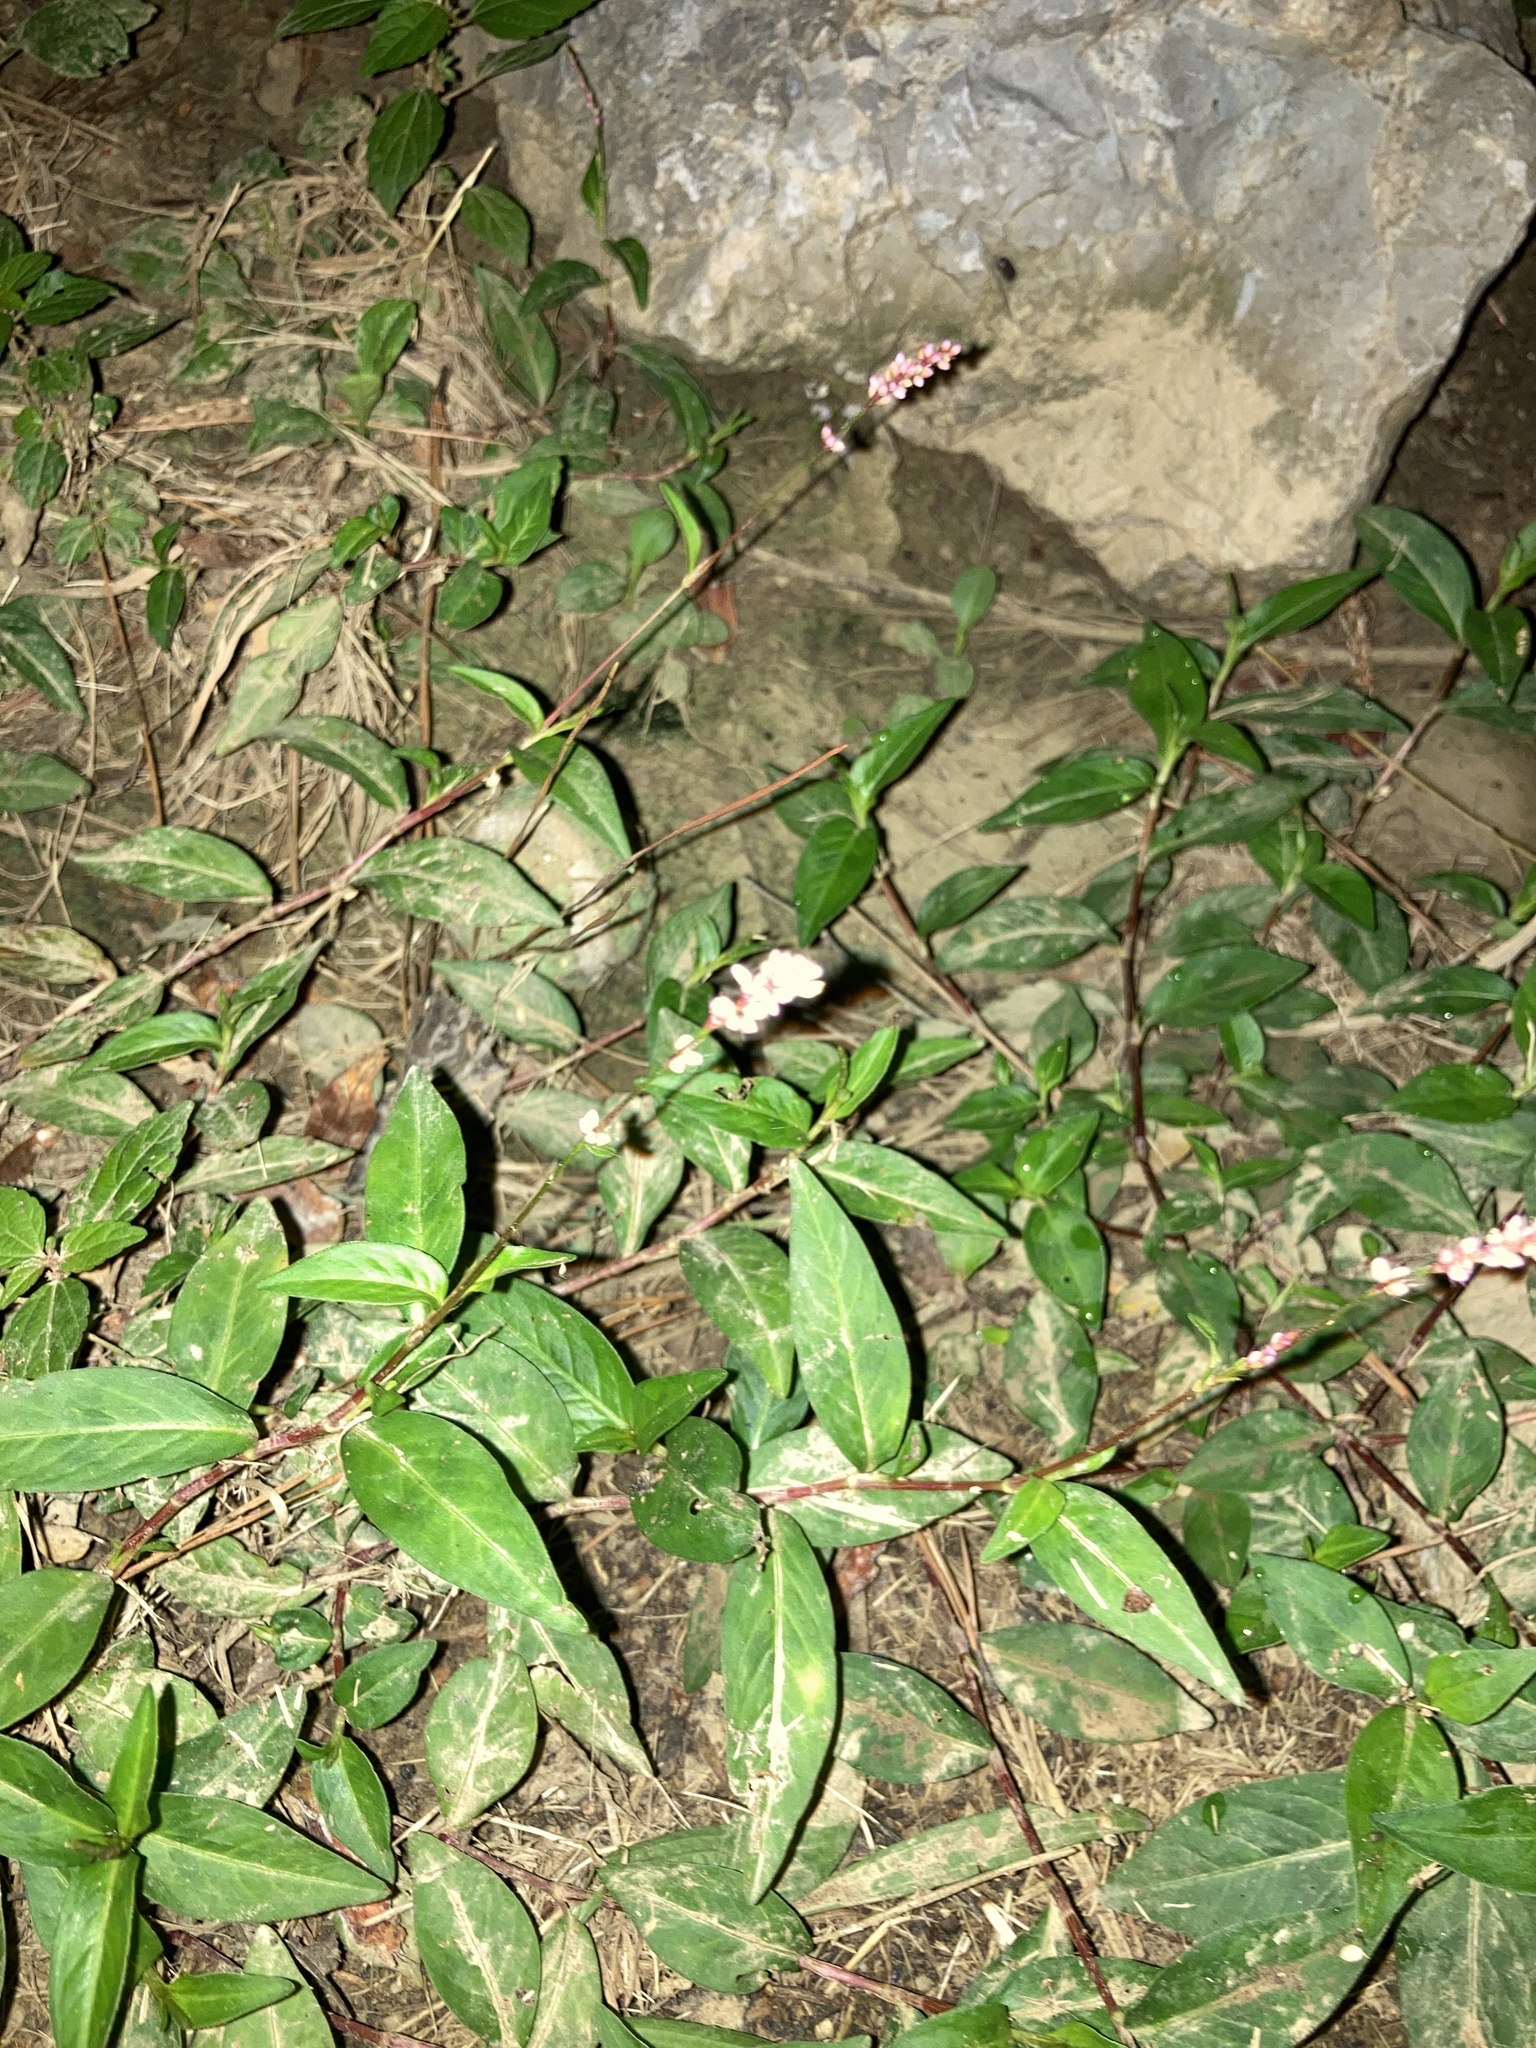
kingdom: Plantae
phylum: Tracheophyta
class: Magnoliopsida
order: Caryophyllales
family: Polygonaceae
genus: Persicaria
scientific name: Persicaria longiseta
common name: Bristly lady's-thumb
